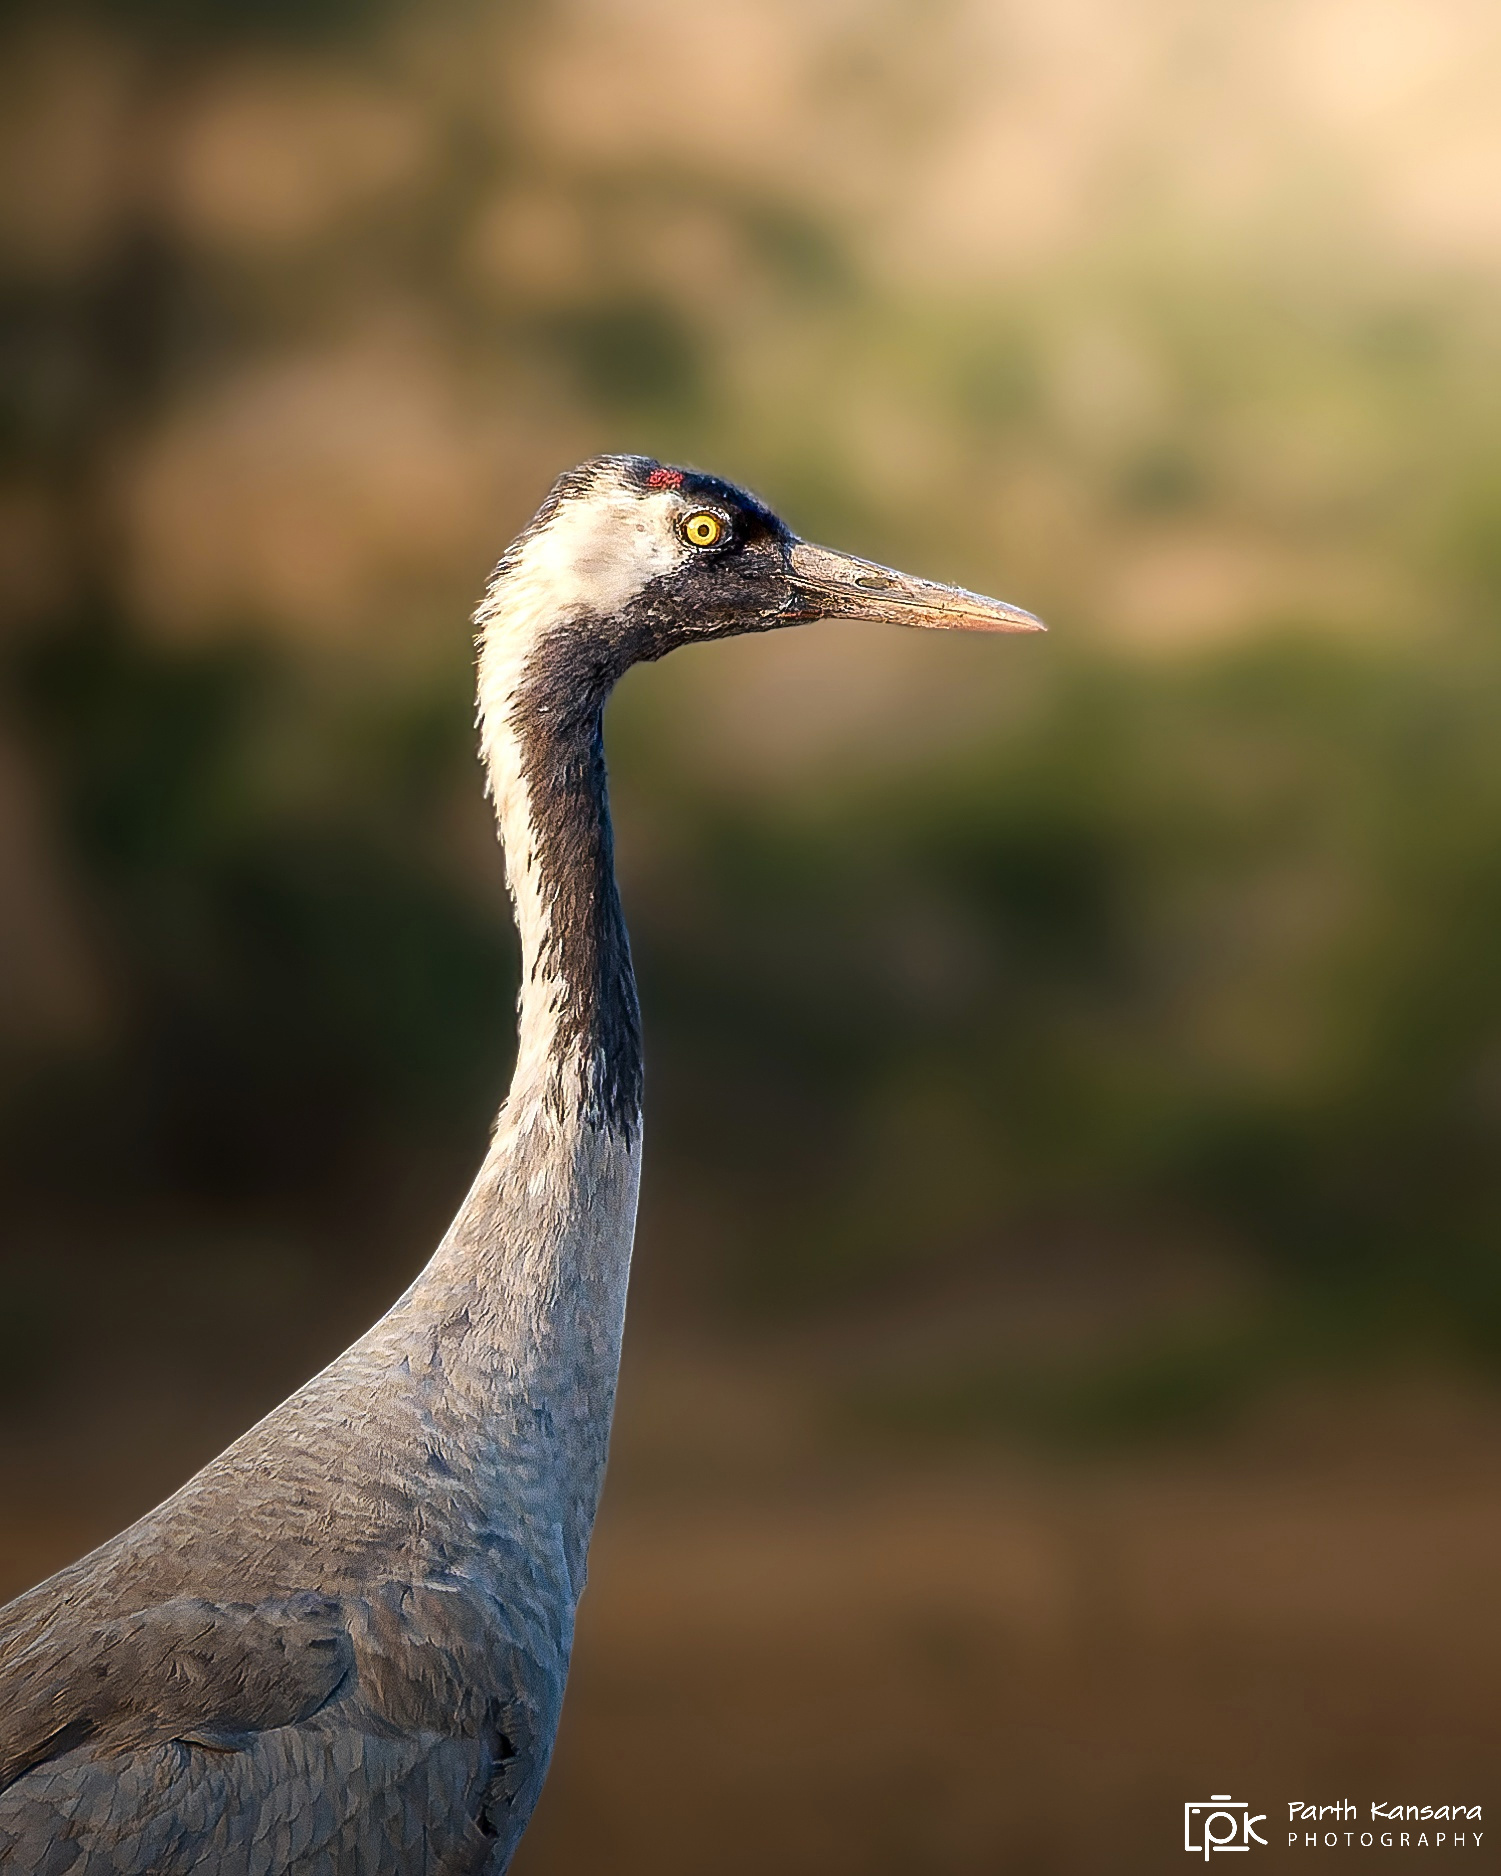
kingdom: Animalia
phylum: Chordata
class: Aves
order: Gruiformes
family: Gruidae
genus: Grus
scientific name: Grus grus
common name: Common crane
